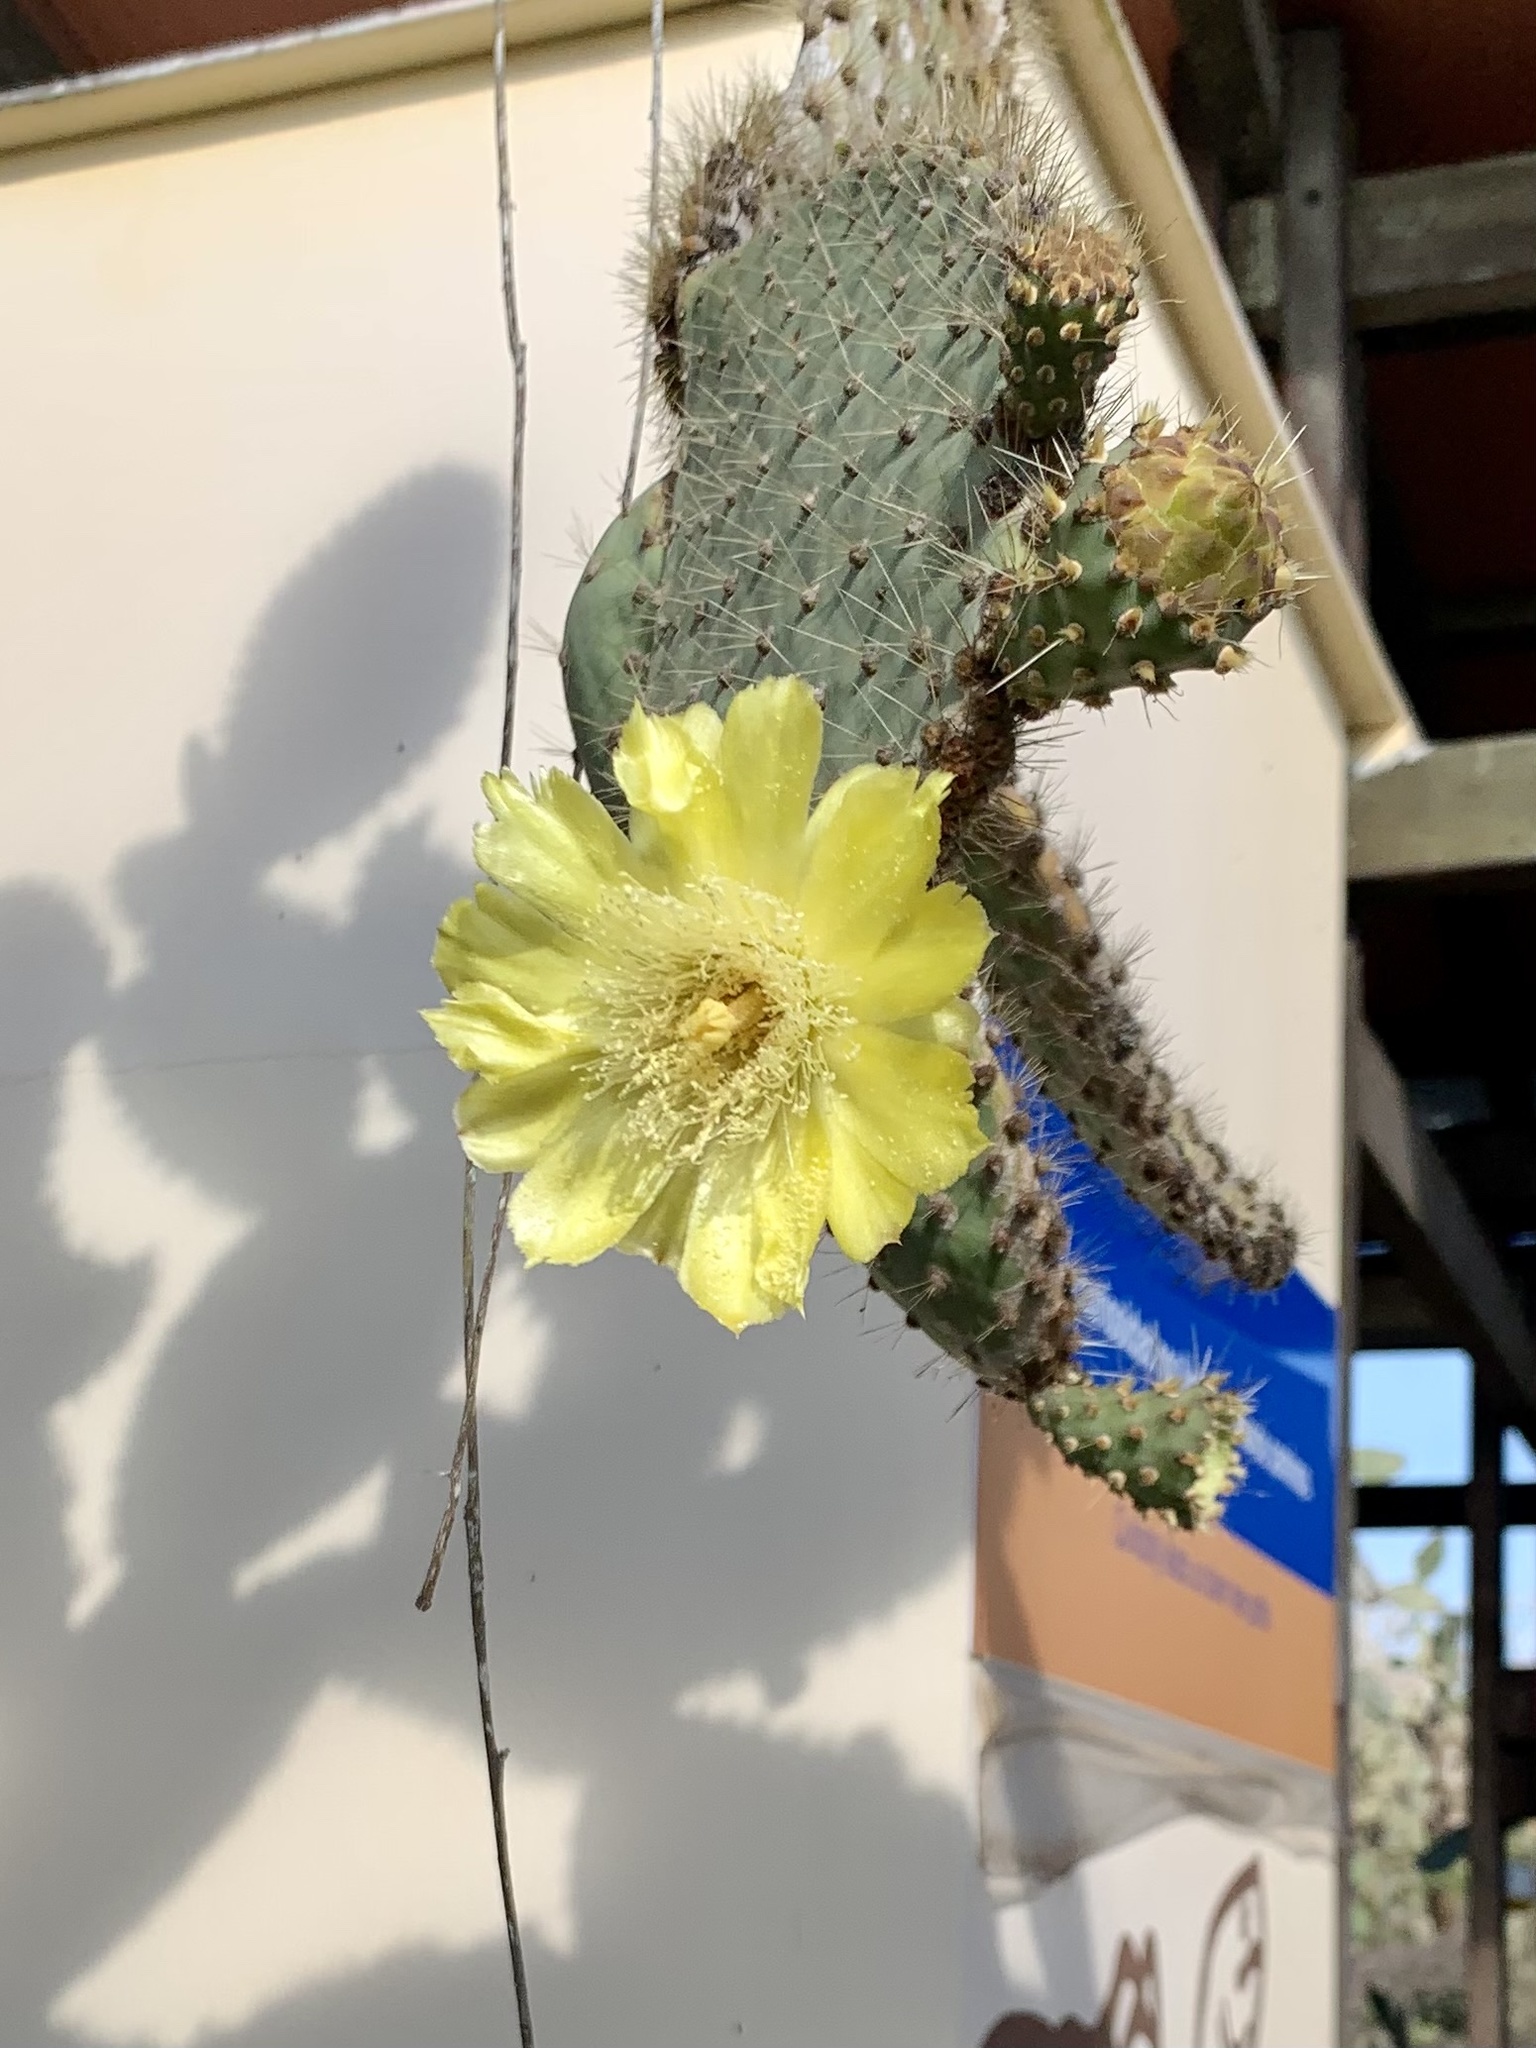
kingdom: Plantae
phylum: Tracheophyta
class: Magnoliopsida
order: Caryophyllales
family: Cactaceae
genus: Opuntia
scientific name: Opuntia galapageia
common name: Galápagos prickly pear
